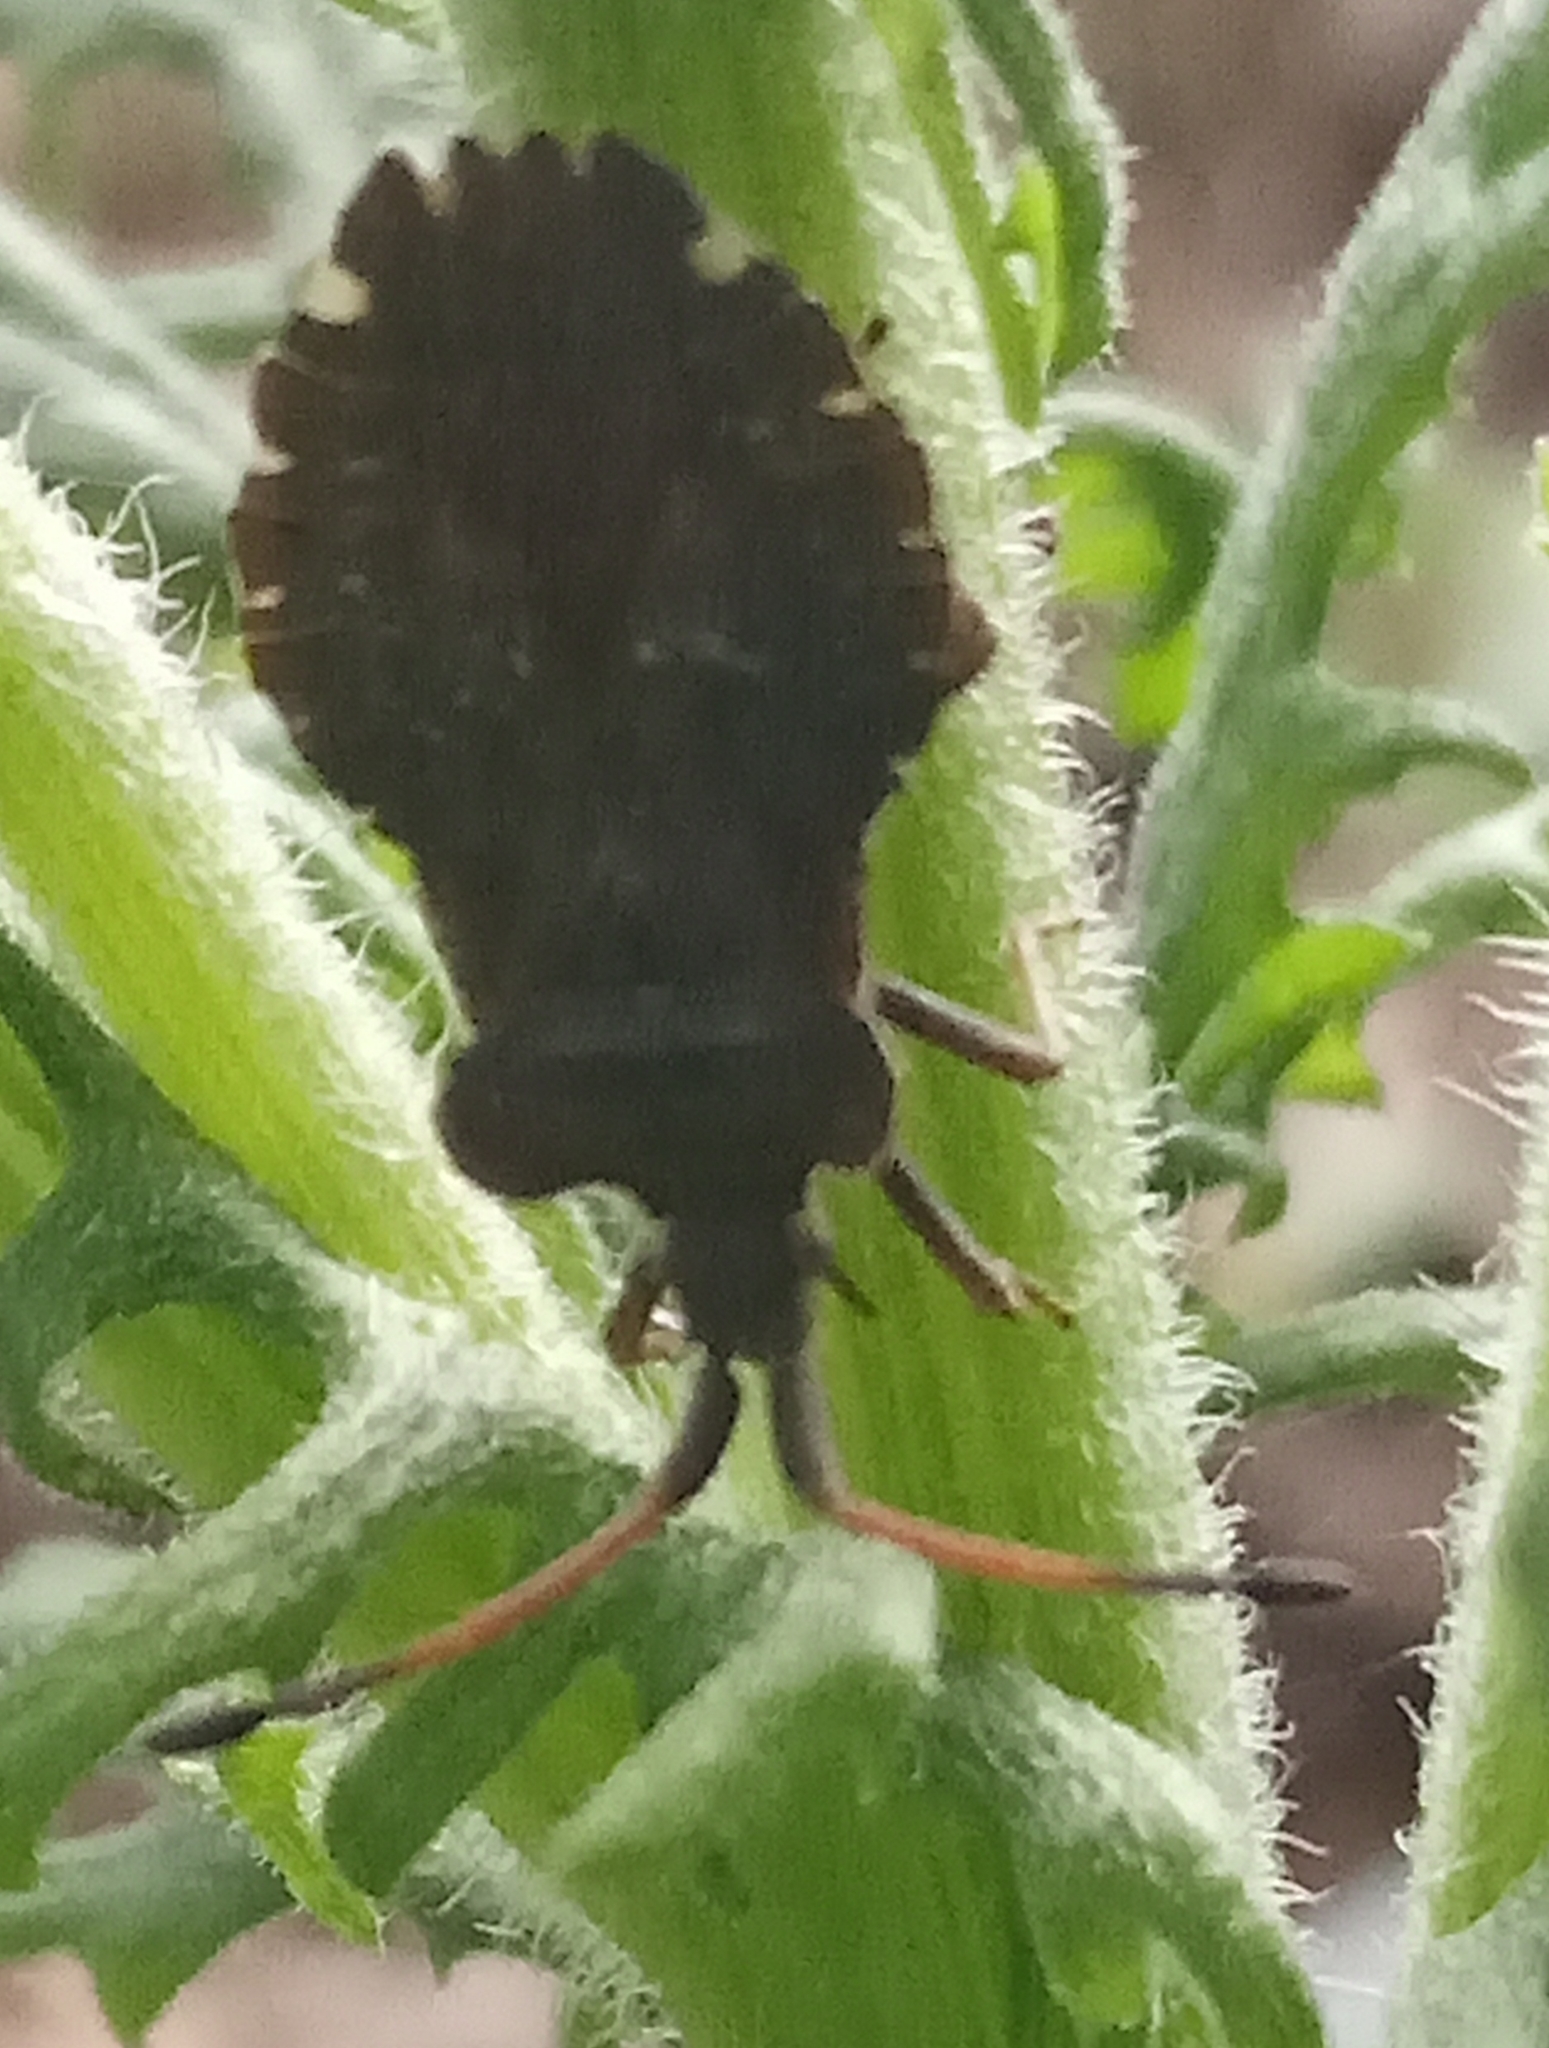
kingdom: Animalia
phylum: Arthropoda
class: Insecta
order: Hemiptera
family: Coreidae
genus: Enoplops
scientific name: Enoplops scapha
